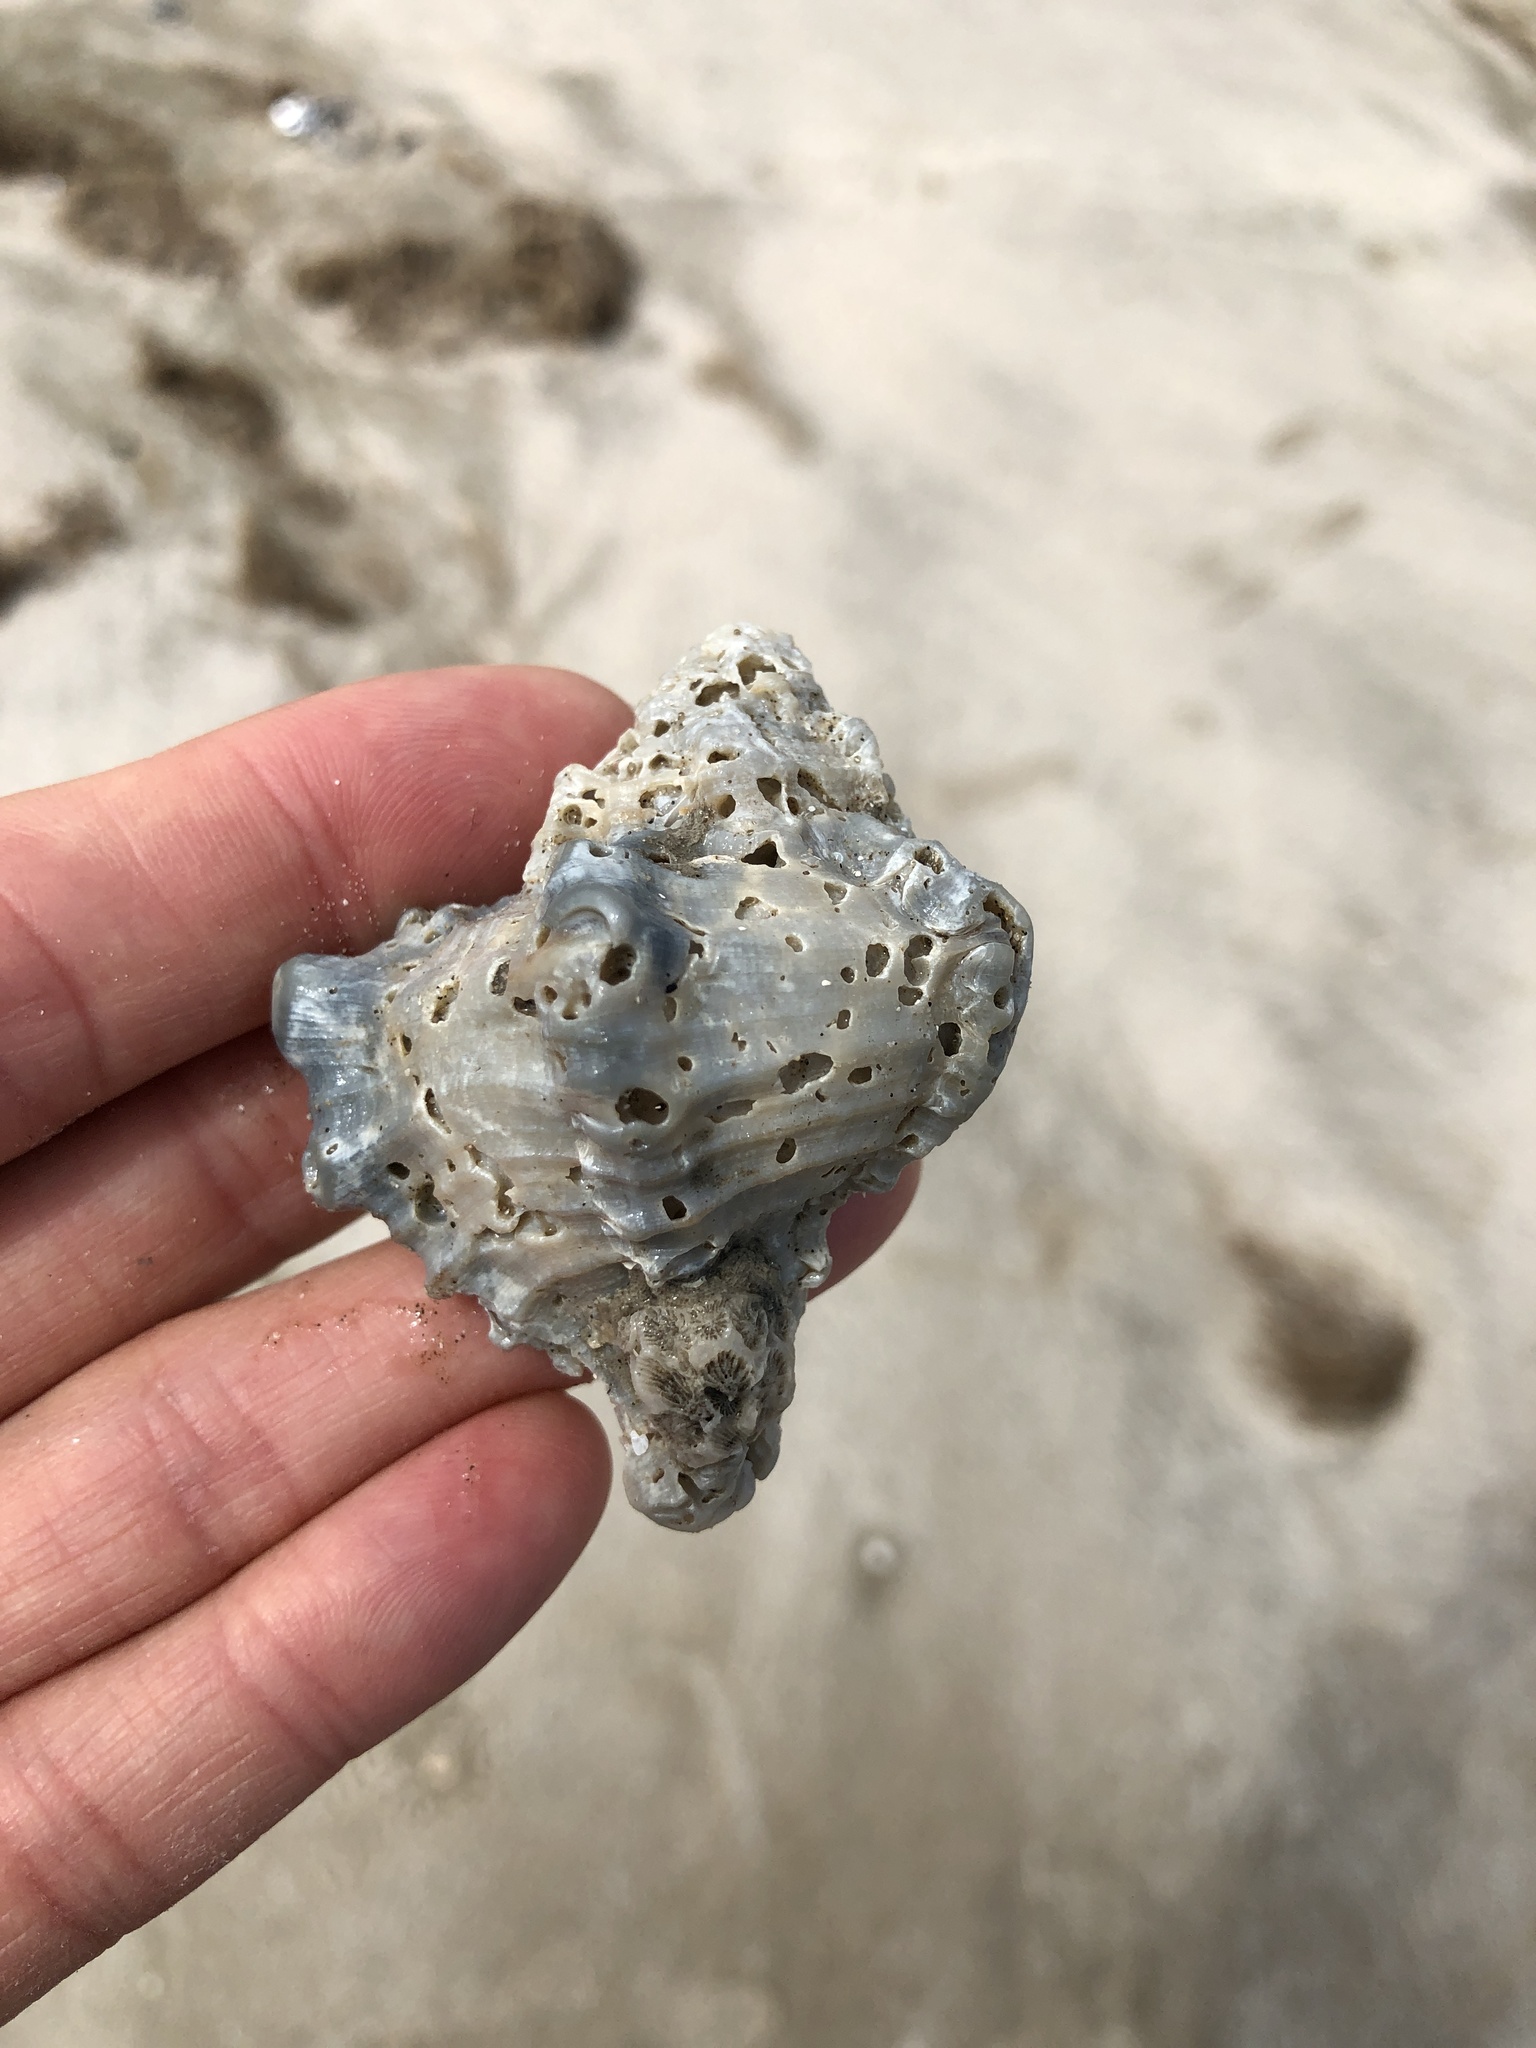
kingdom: Animalia
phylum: Mollusca
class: Gastropoda
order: Neogastropoda
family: Muricidae
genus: Hexaplex
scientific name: Hexaplex fulvescens
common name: Tawny murex
